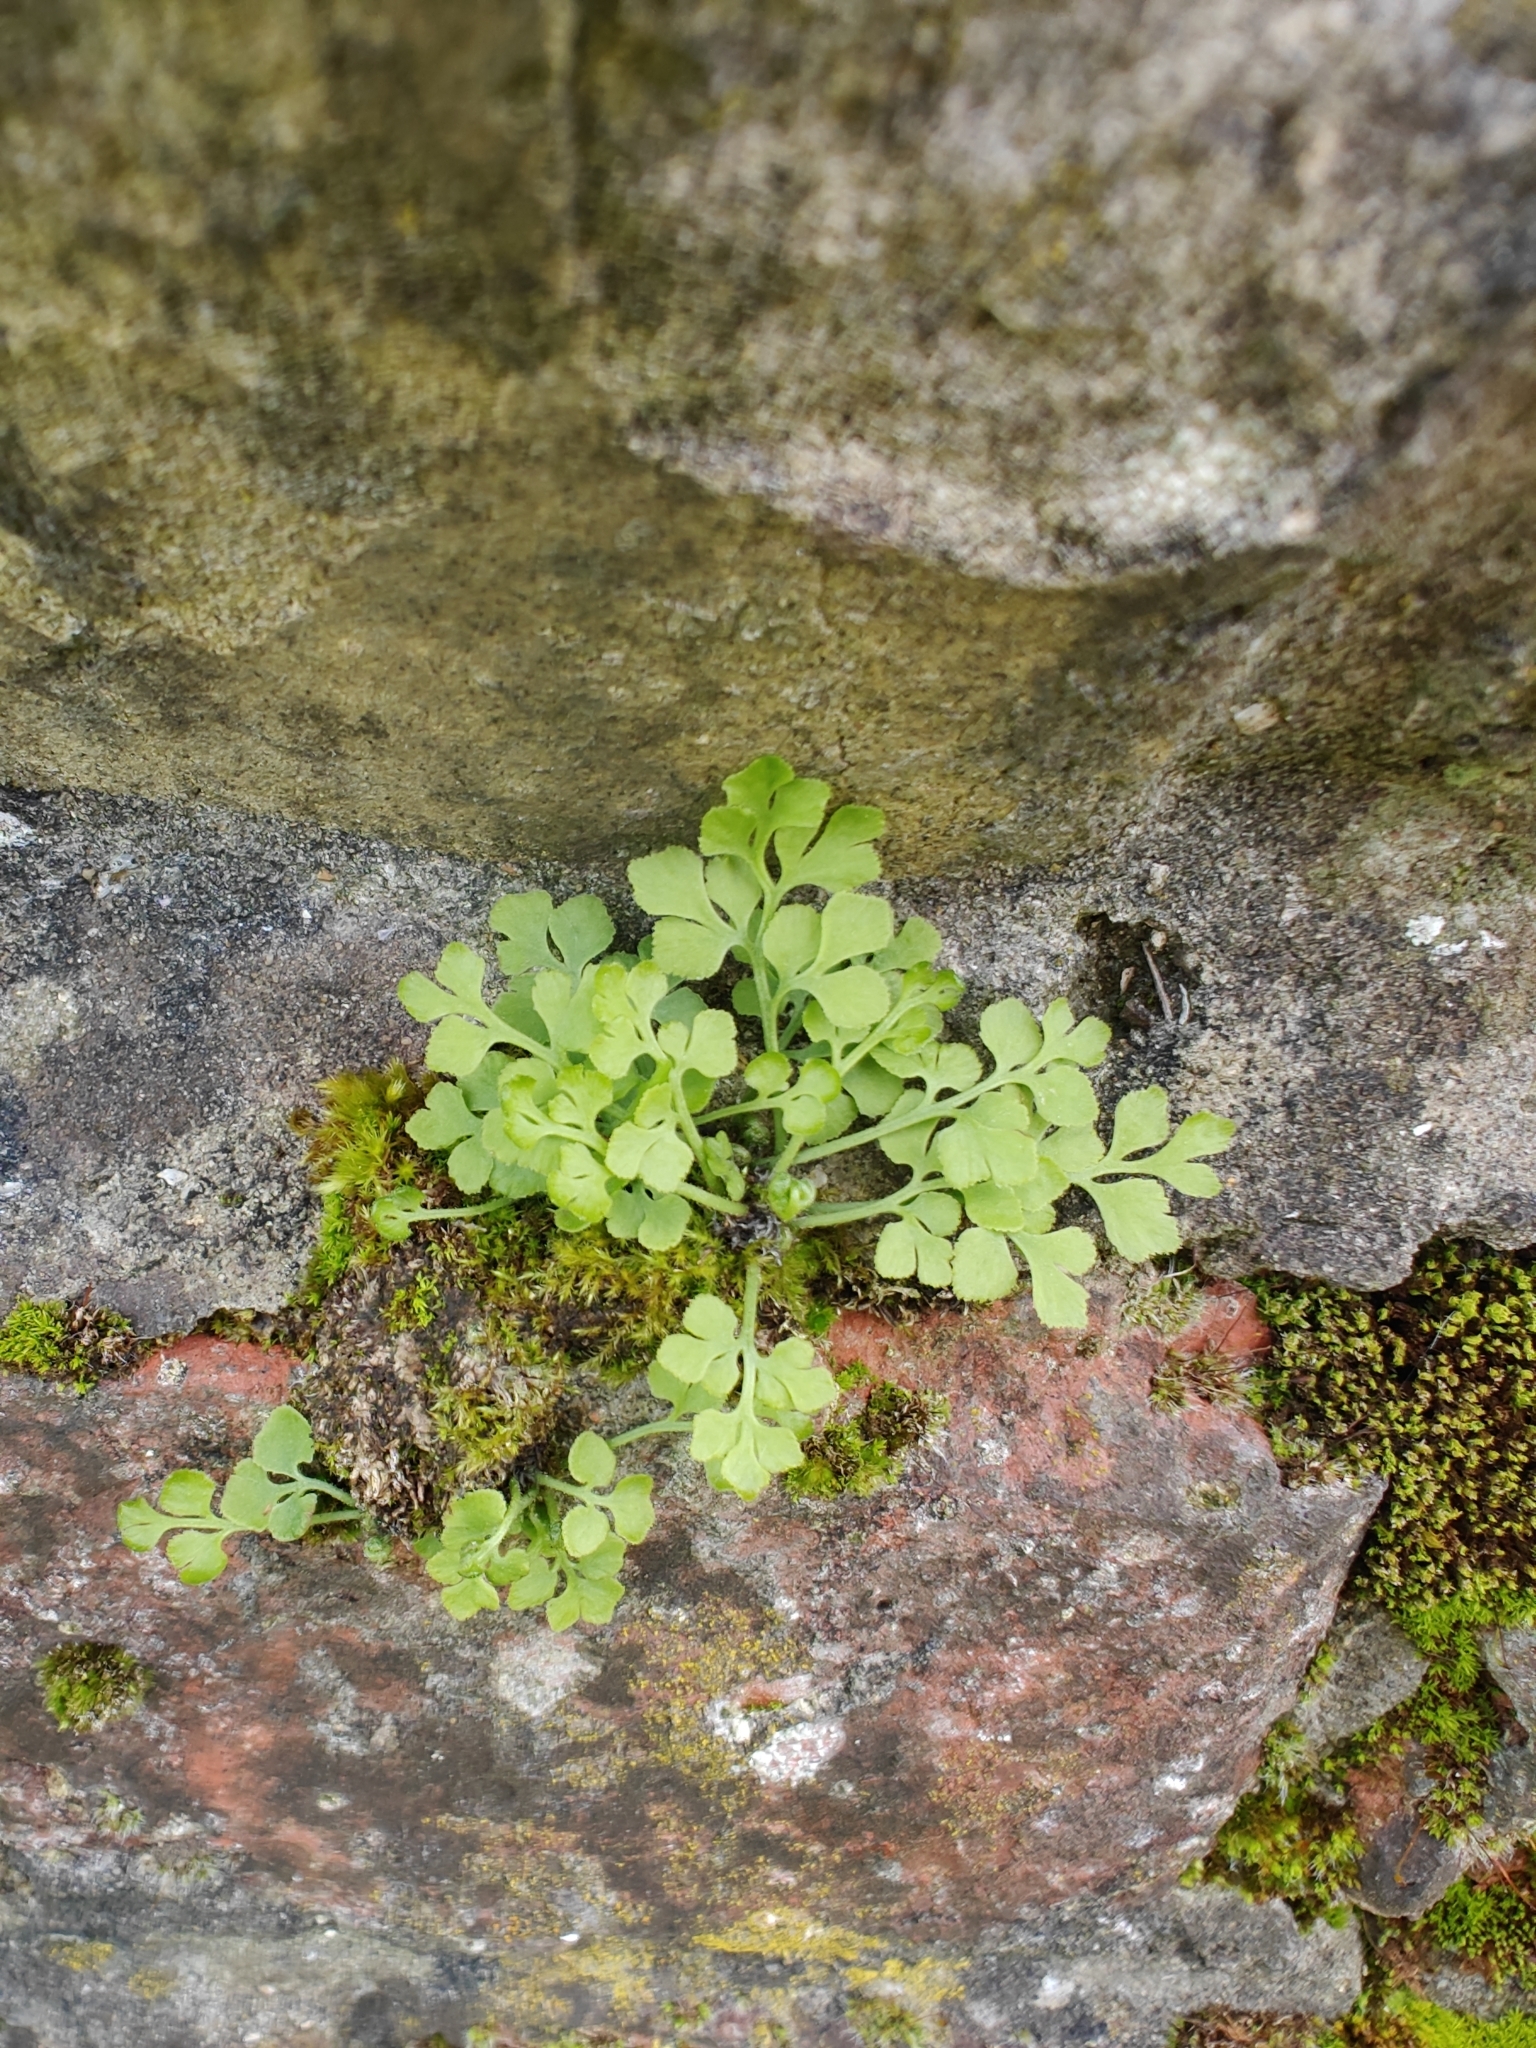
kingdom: Plantae
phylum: Tracheophyta
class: Polypodiopsida
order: Polypodiales
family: Aspleniaceae
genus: Asplenium
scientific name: Asplenium ruta-muraria
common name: Wall-rue
